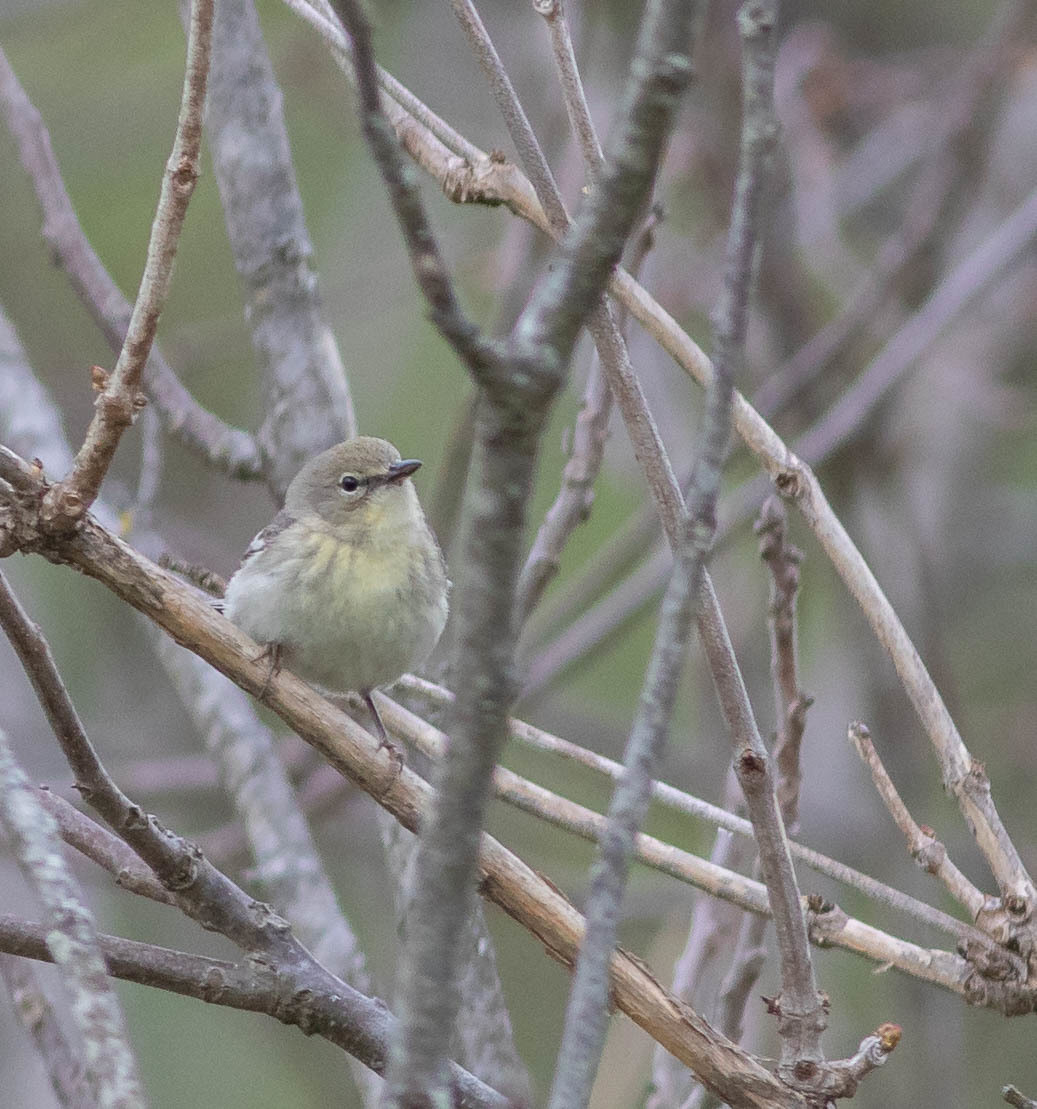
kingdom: Animalia
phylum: Chordata
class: Aves
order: Passeriformes
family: Parulidae
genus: Setophaga
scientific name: Setophaga pinus
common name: Pine warbler
